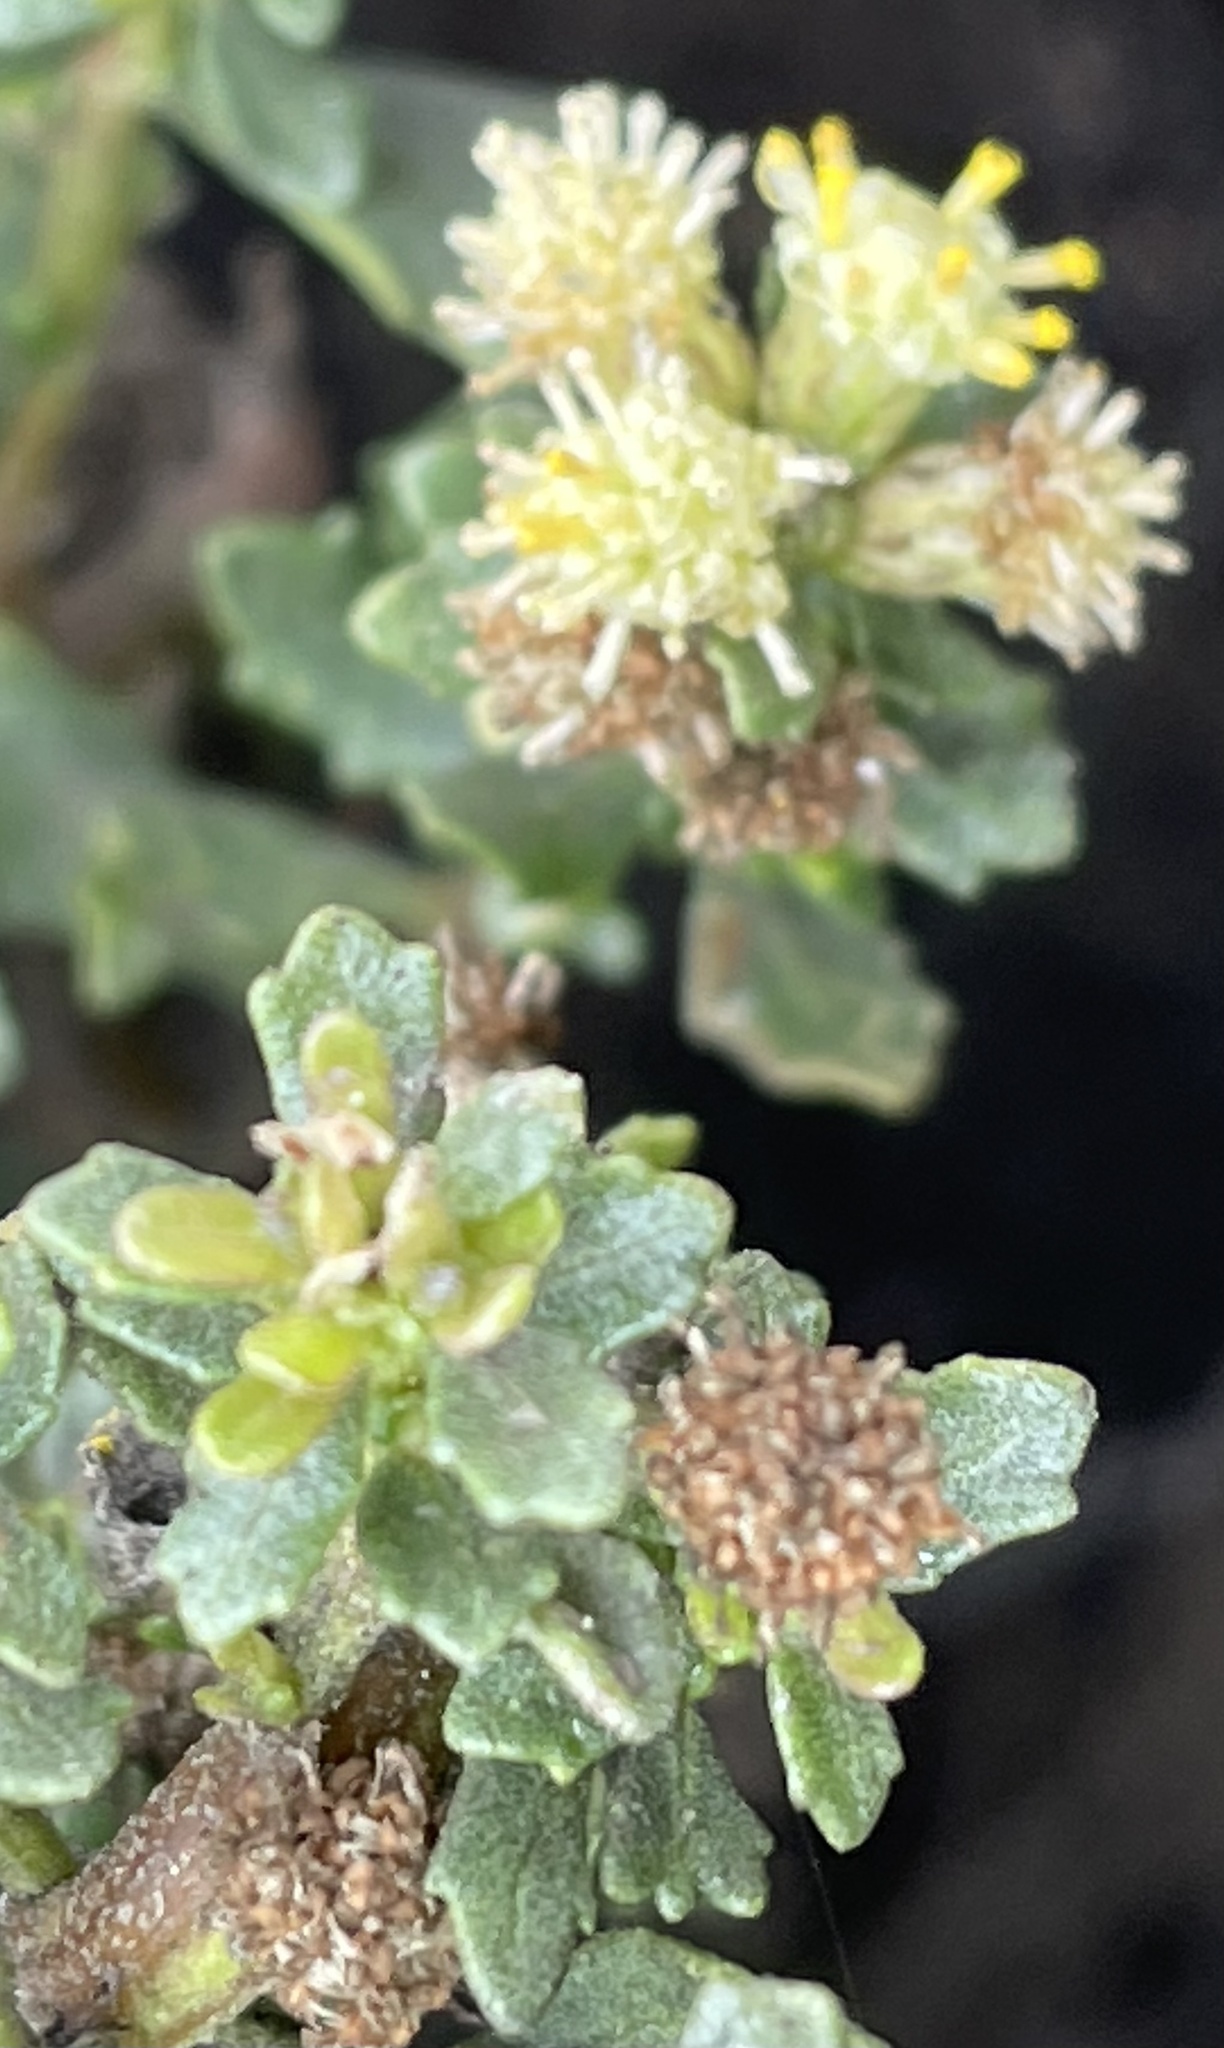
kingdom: Plantae
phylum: Tracheophyta
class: Magnoliopsida
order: Asterales
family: Asteraceae
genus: Baccharis
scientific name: Baccharis pilularis
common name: Coyotebrush
